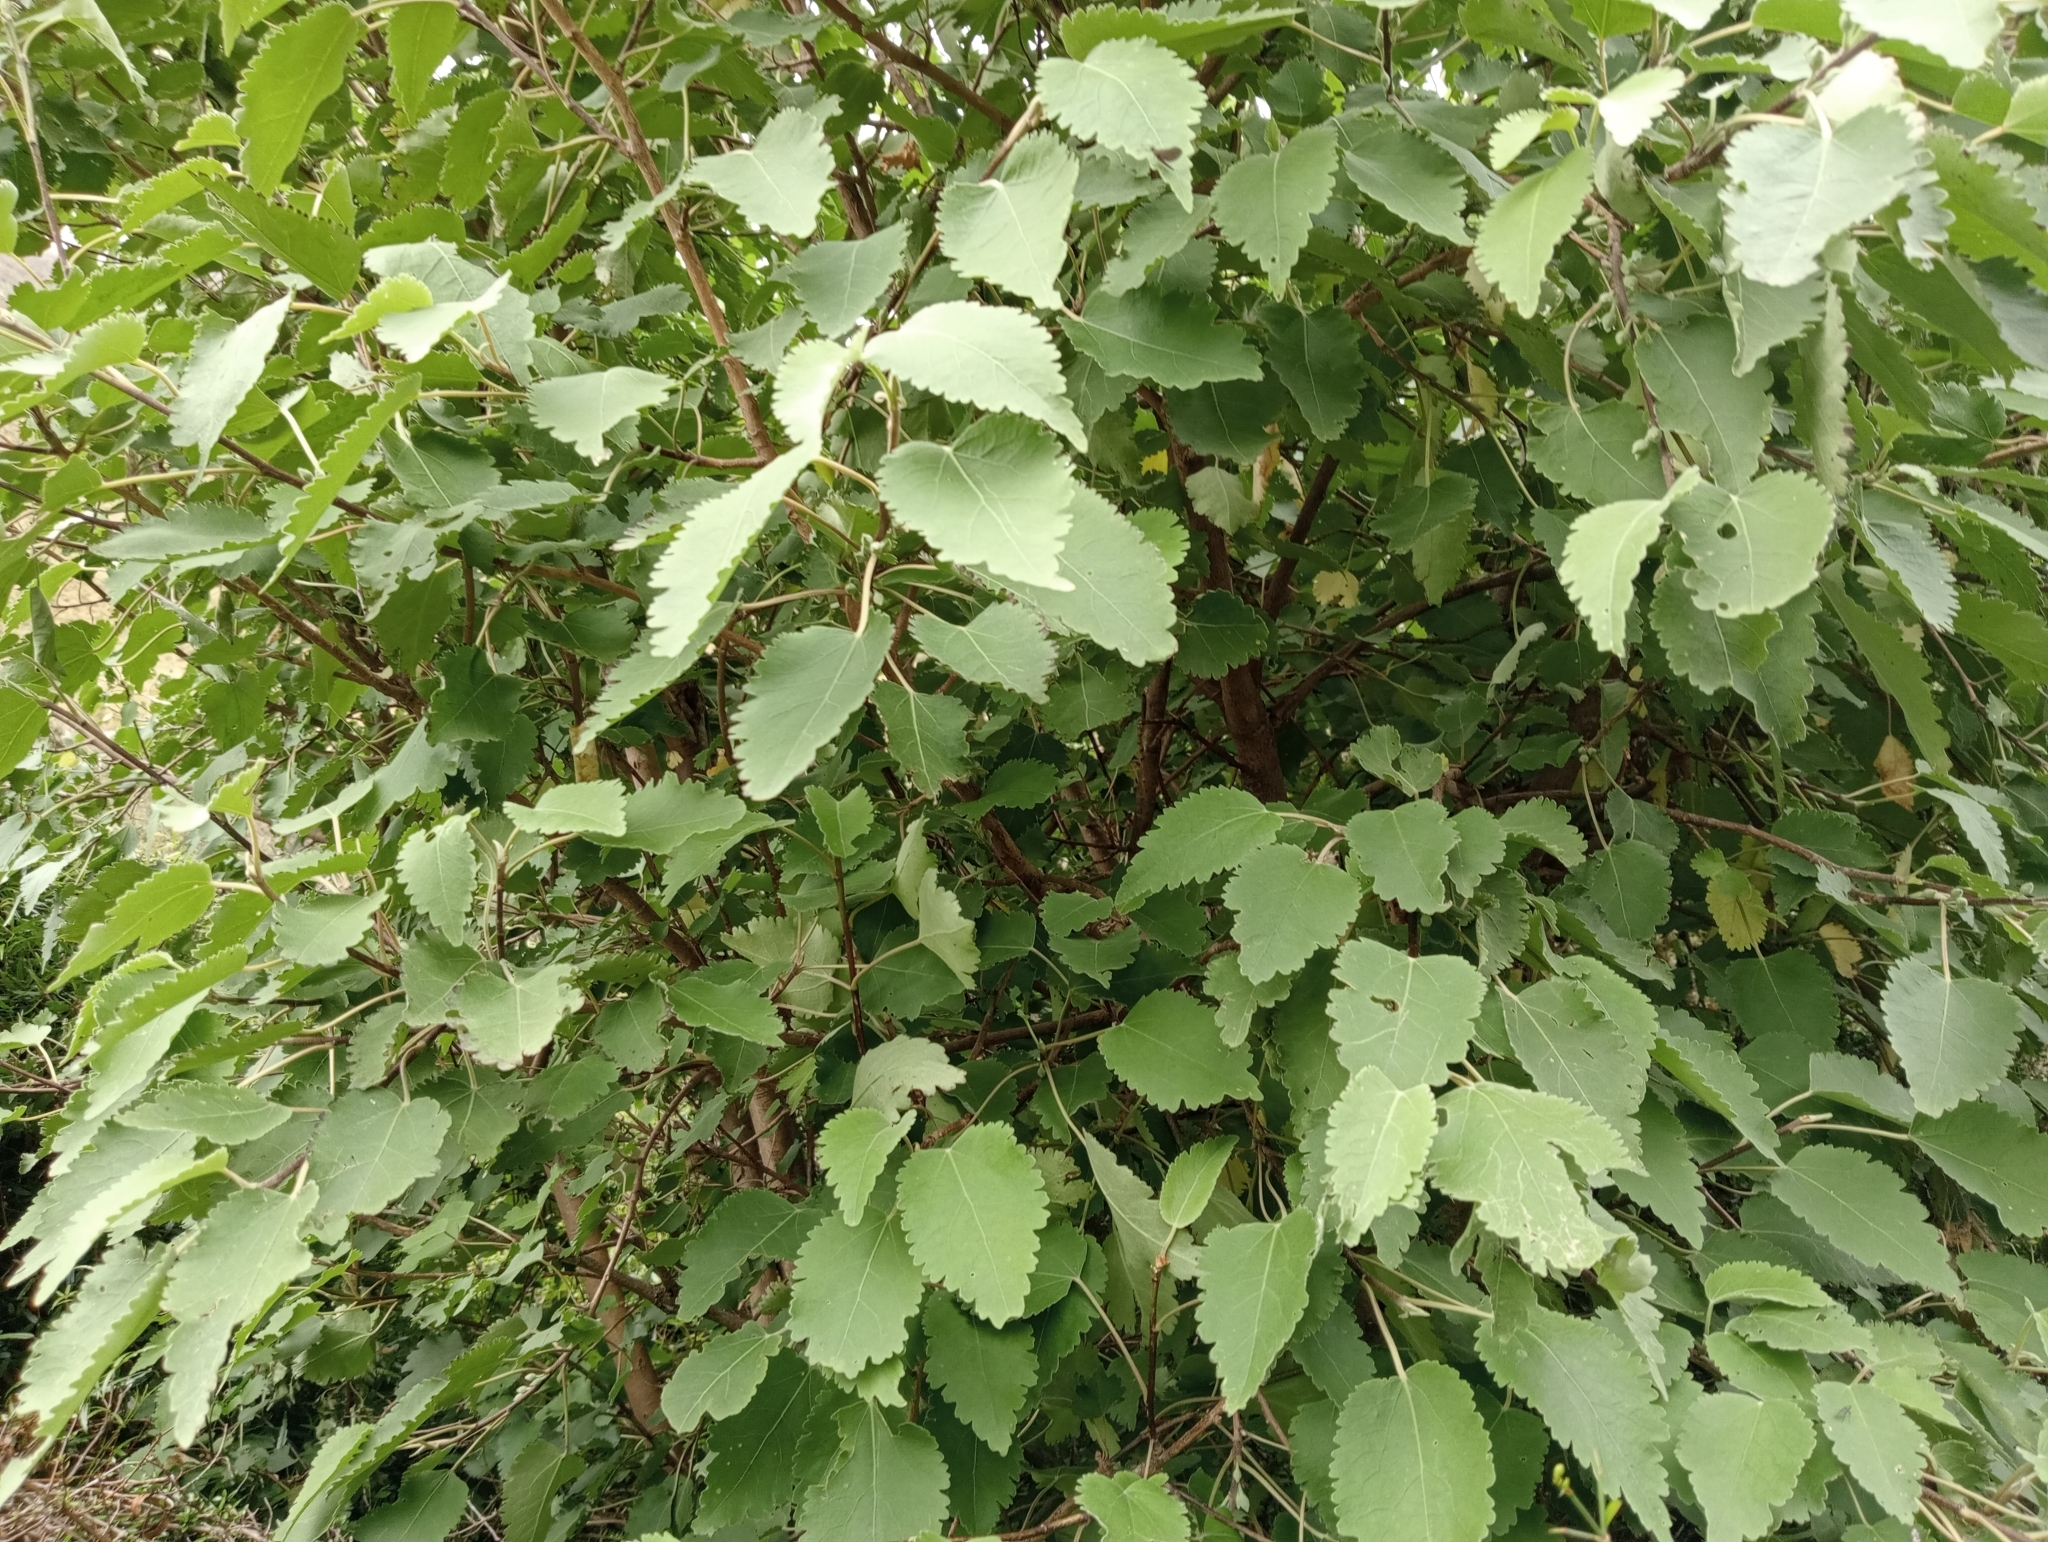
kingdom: Plantae
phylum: Tracheophyta
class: Magnoliopsida
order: Malvales
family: Malvaceae
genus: Hoheria
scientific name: Hoheria lyallii
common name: Lacebark
